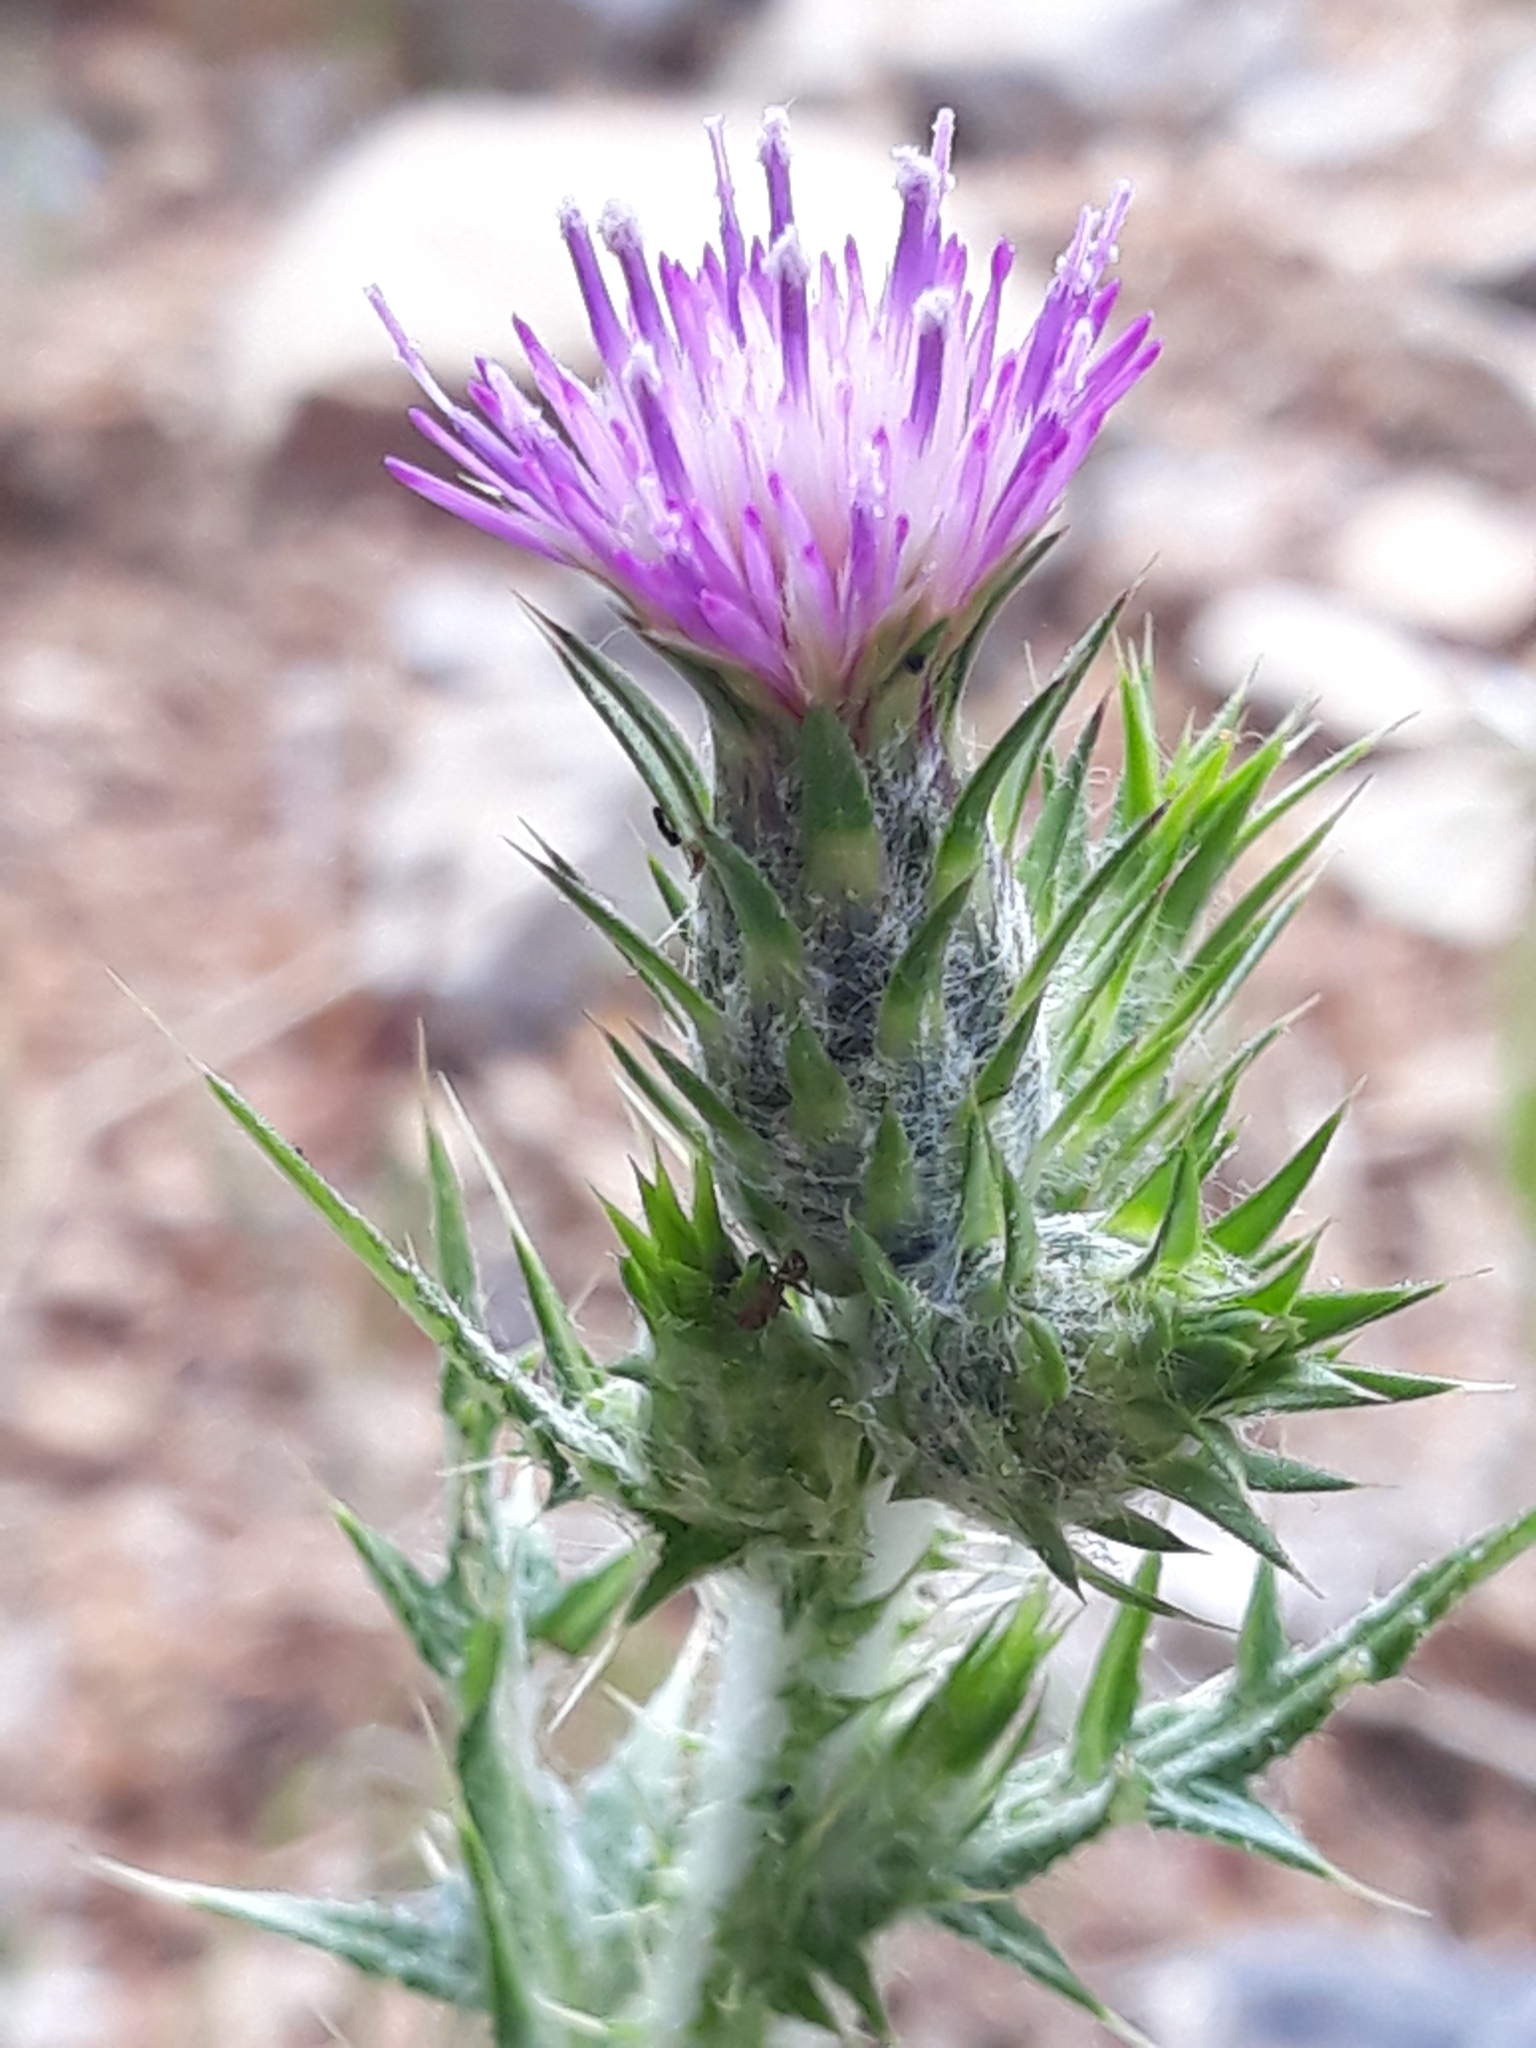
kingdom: Plantae
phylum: Tracheophyta
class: Magnoliopsida
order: Asterales
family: Asteraceae
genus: Carduus
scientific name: Carduus pycnocephalus
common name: Plymouth thistle
